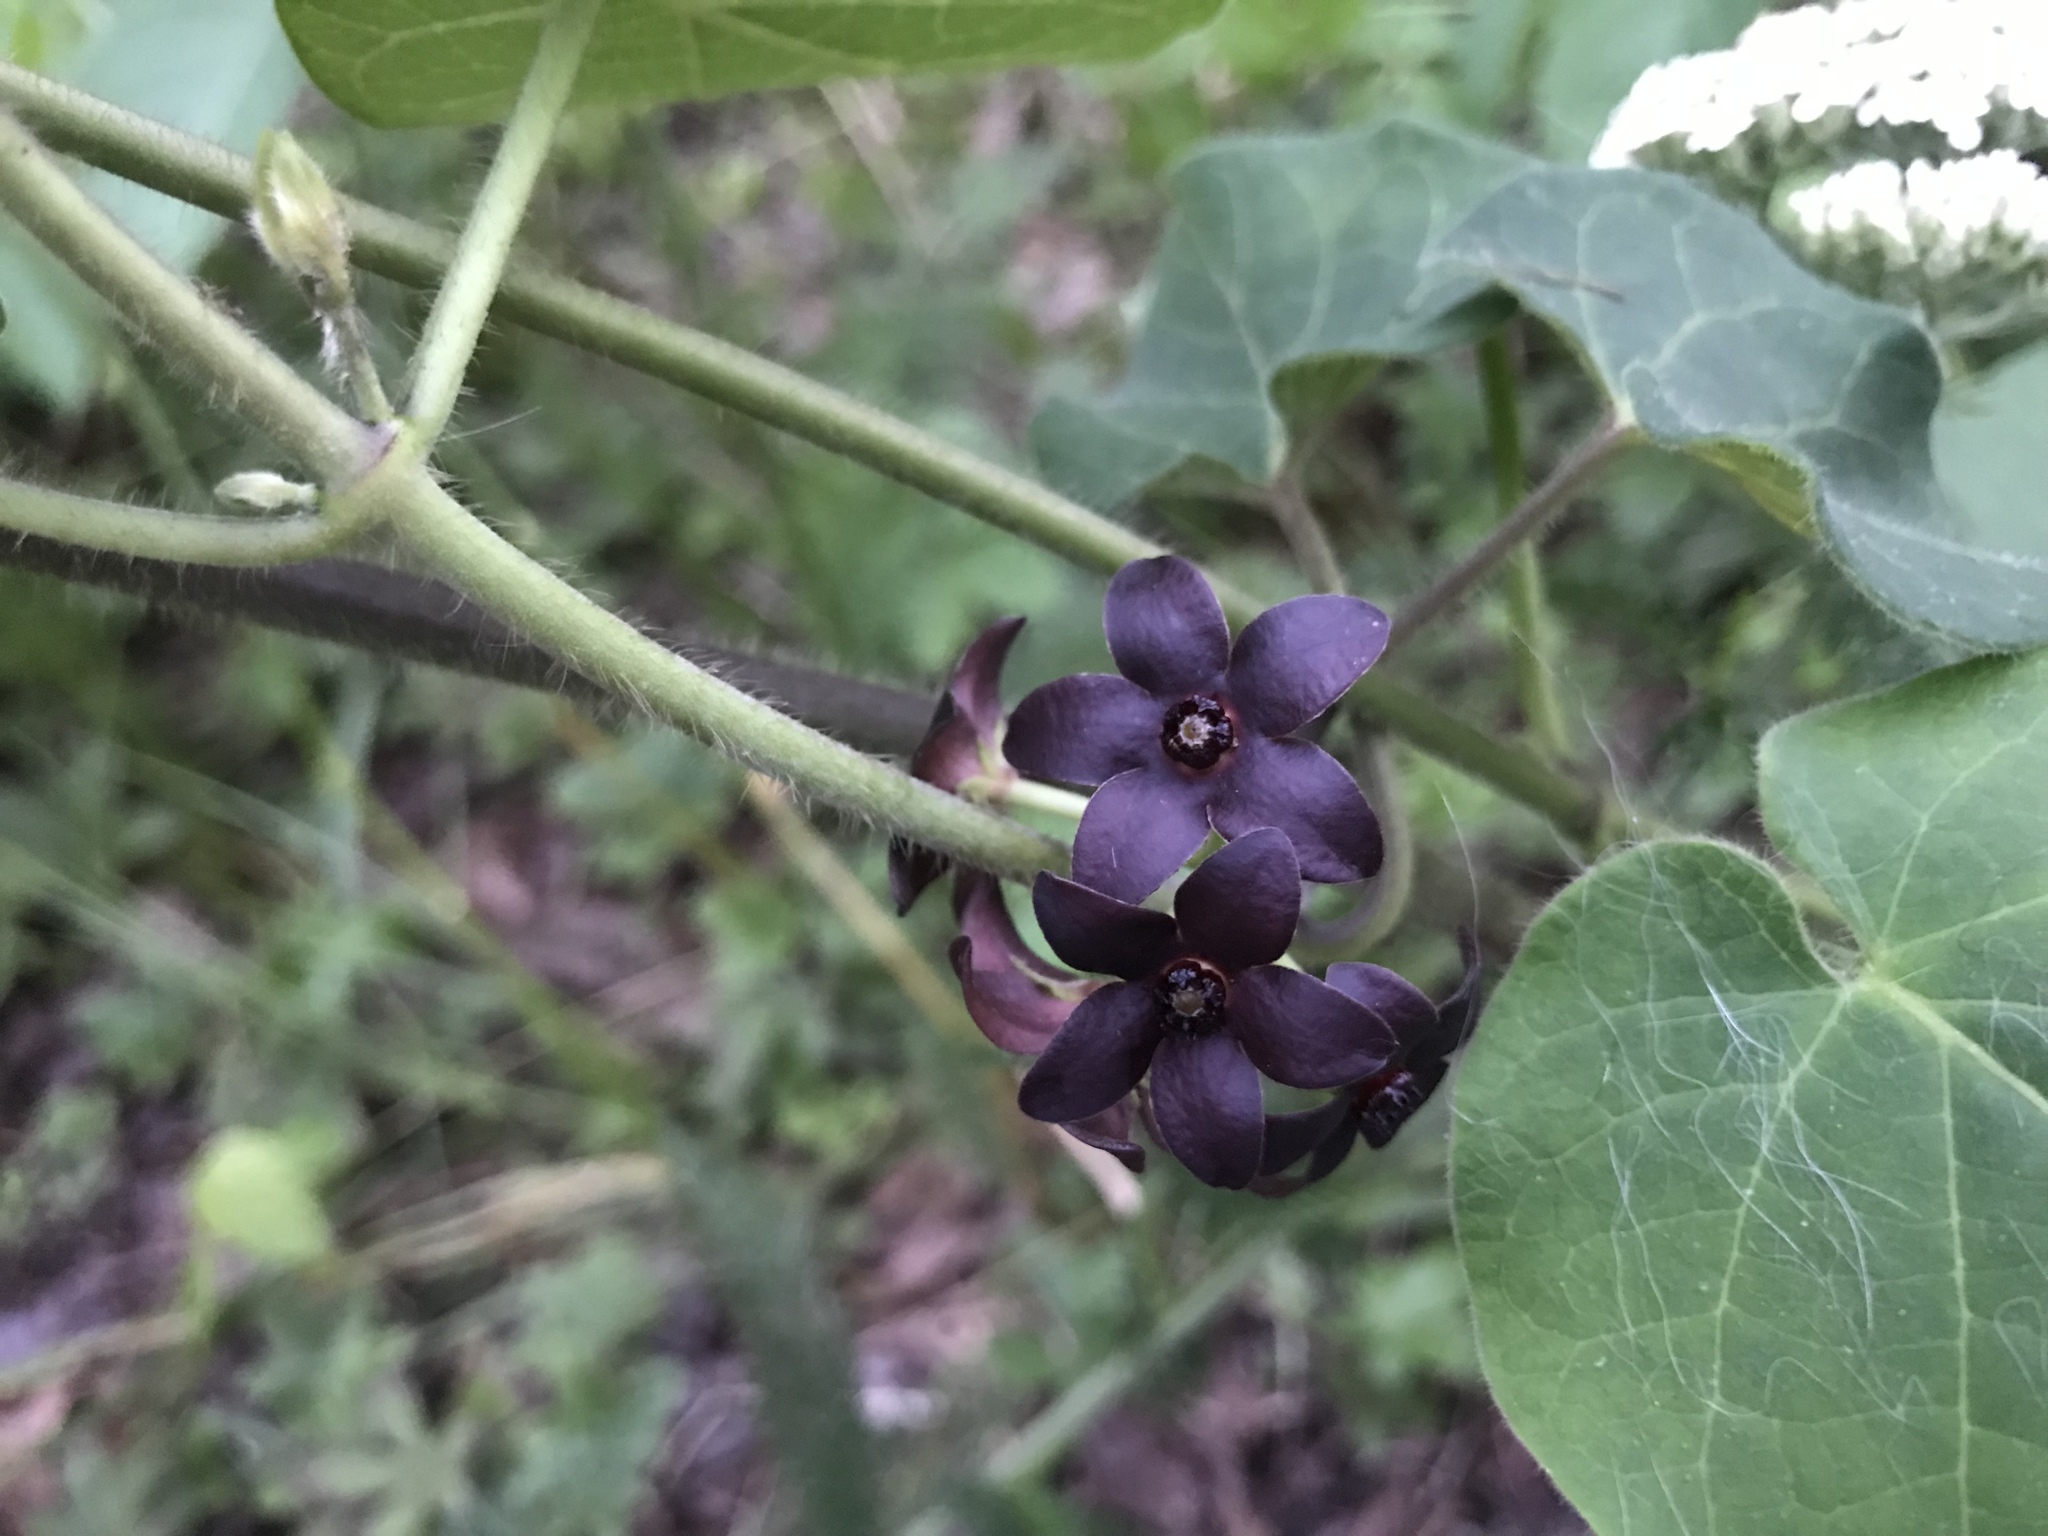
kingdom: Plantae
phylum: Tracheophyta
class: Magnoliopsida
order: Gentianales
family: Apocynaceae
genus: Matelea
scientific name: Matelea carolinensis
